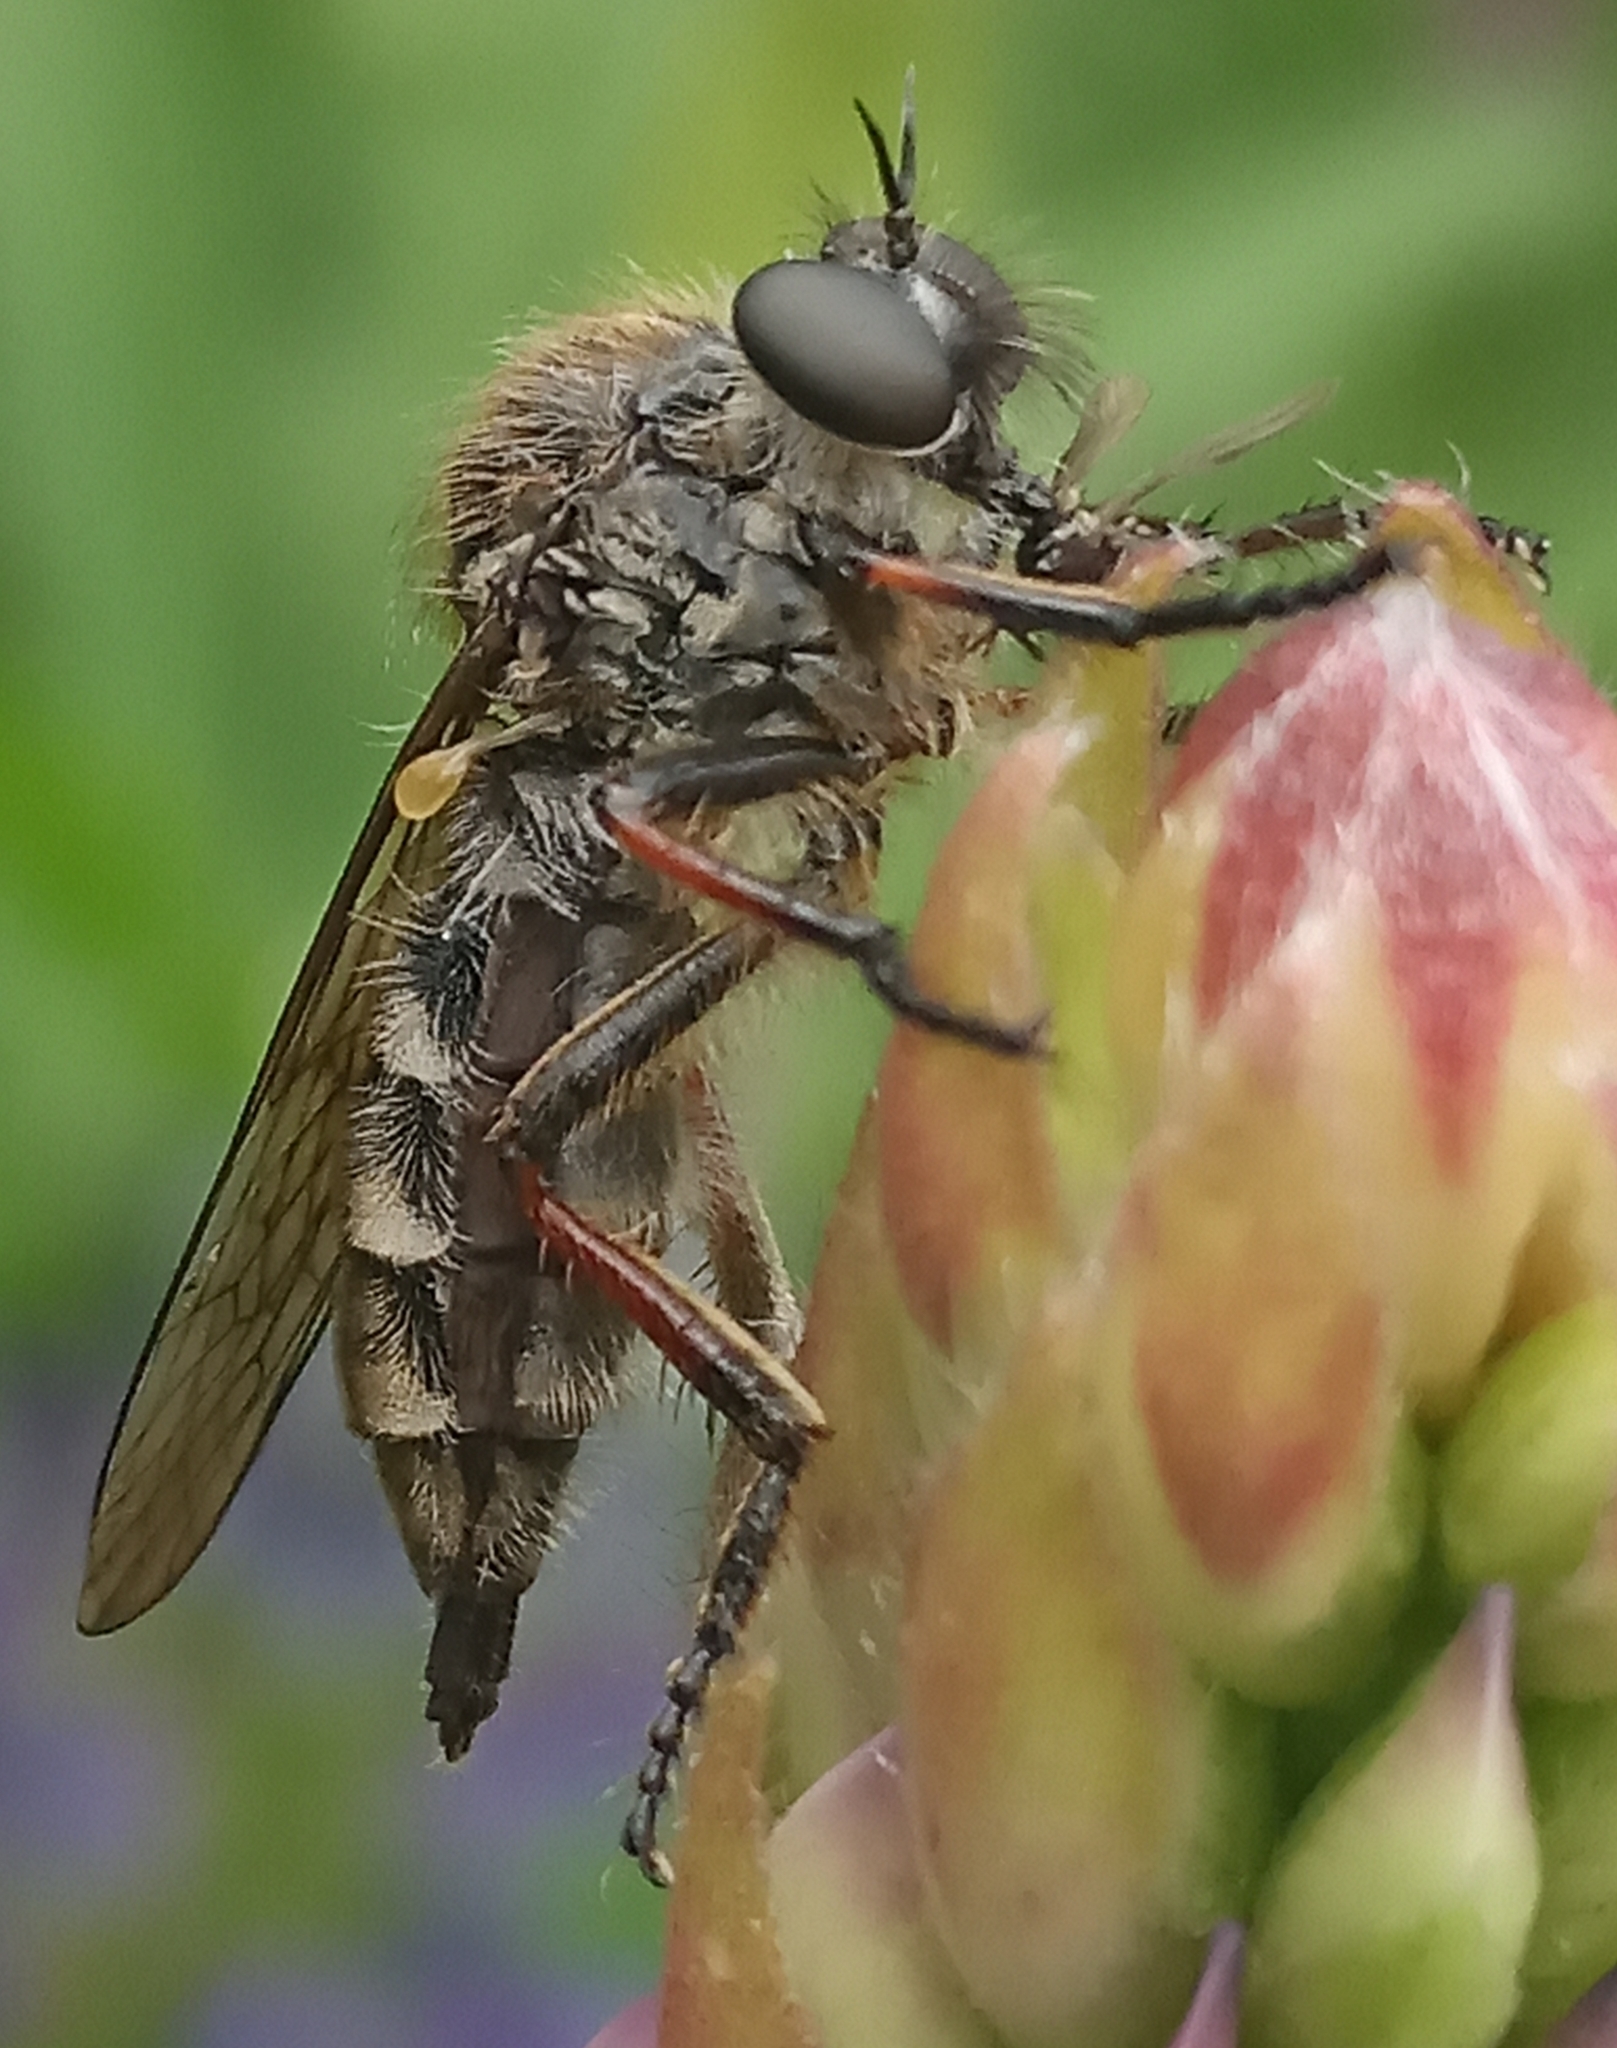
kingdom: Animalia
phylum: Arthropoda
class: Insecta
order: Diptera
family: Asilidae
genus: Leptarthrus
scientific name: Leptarthrus brevirostris
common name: Slender-footed robberfly
